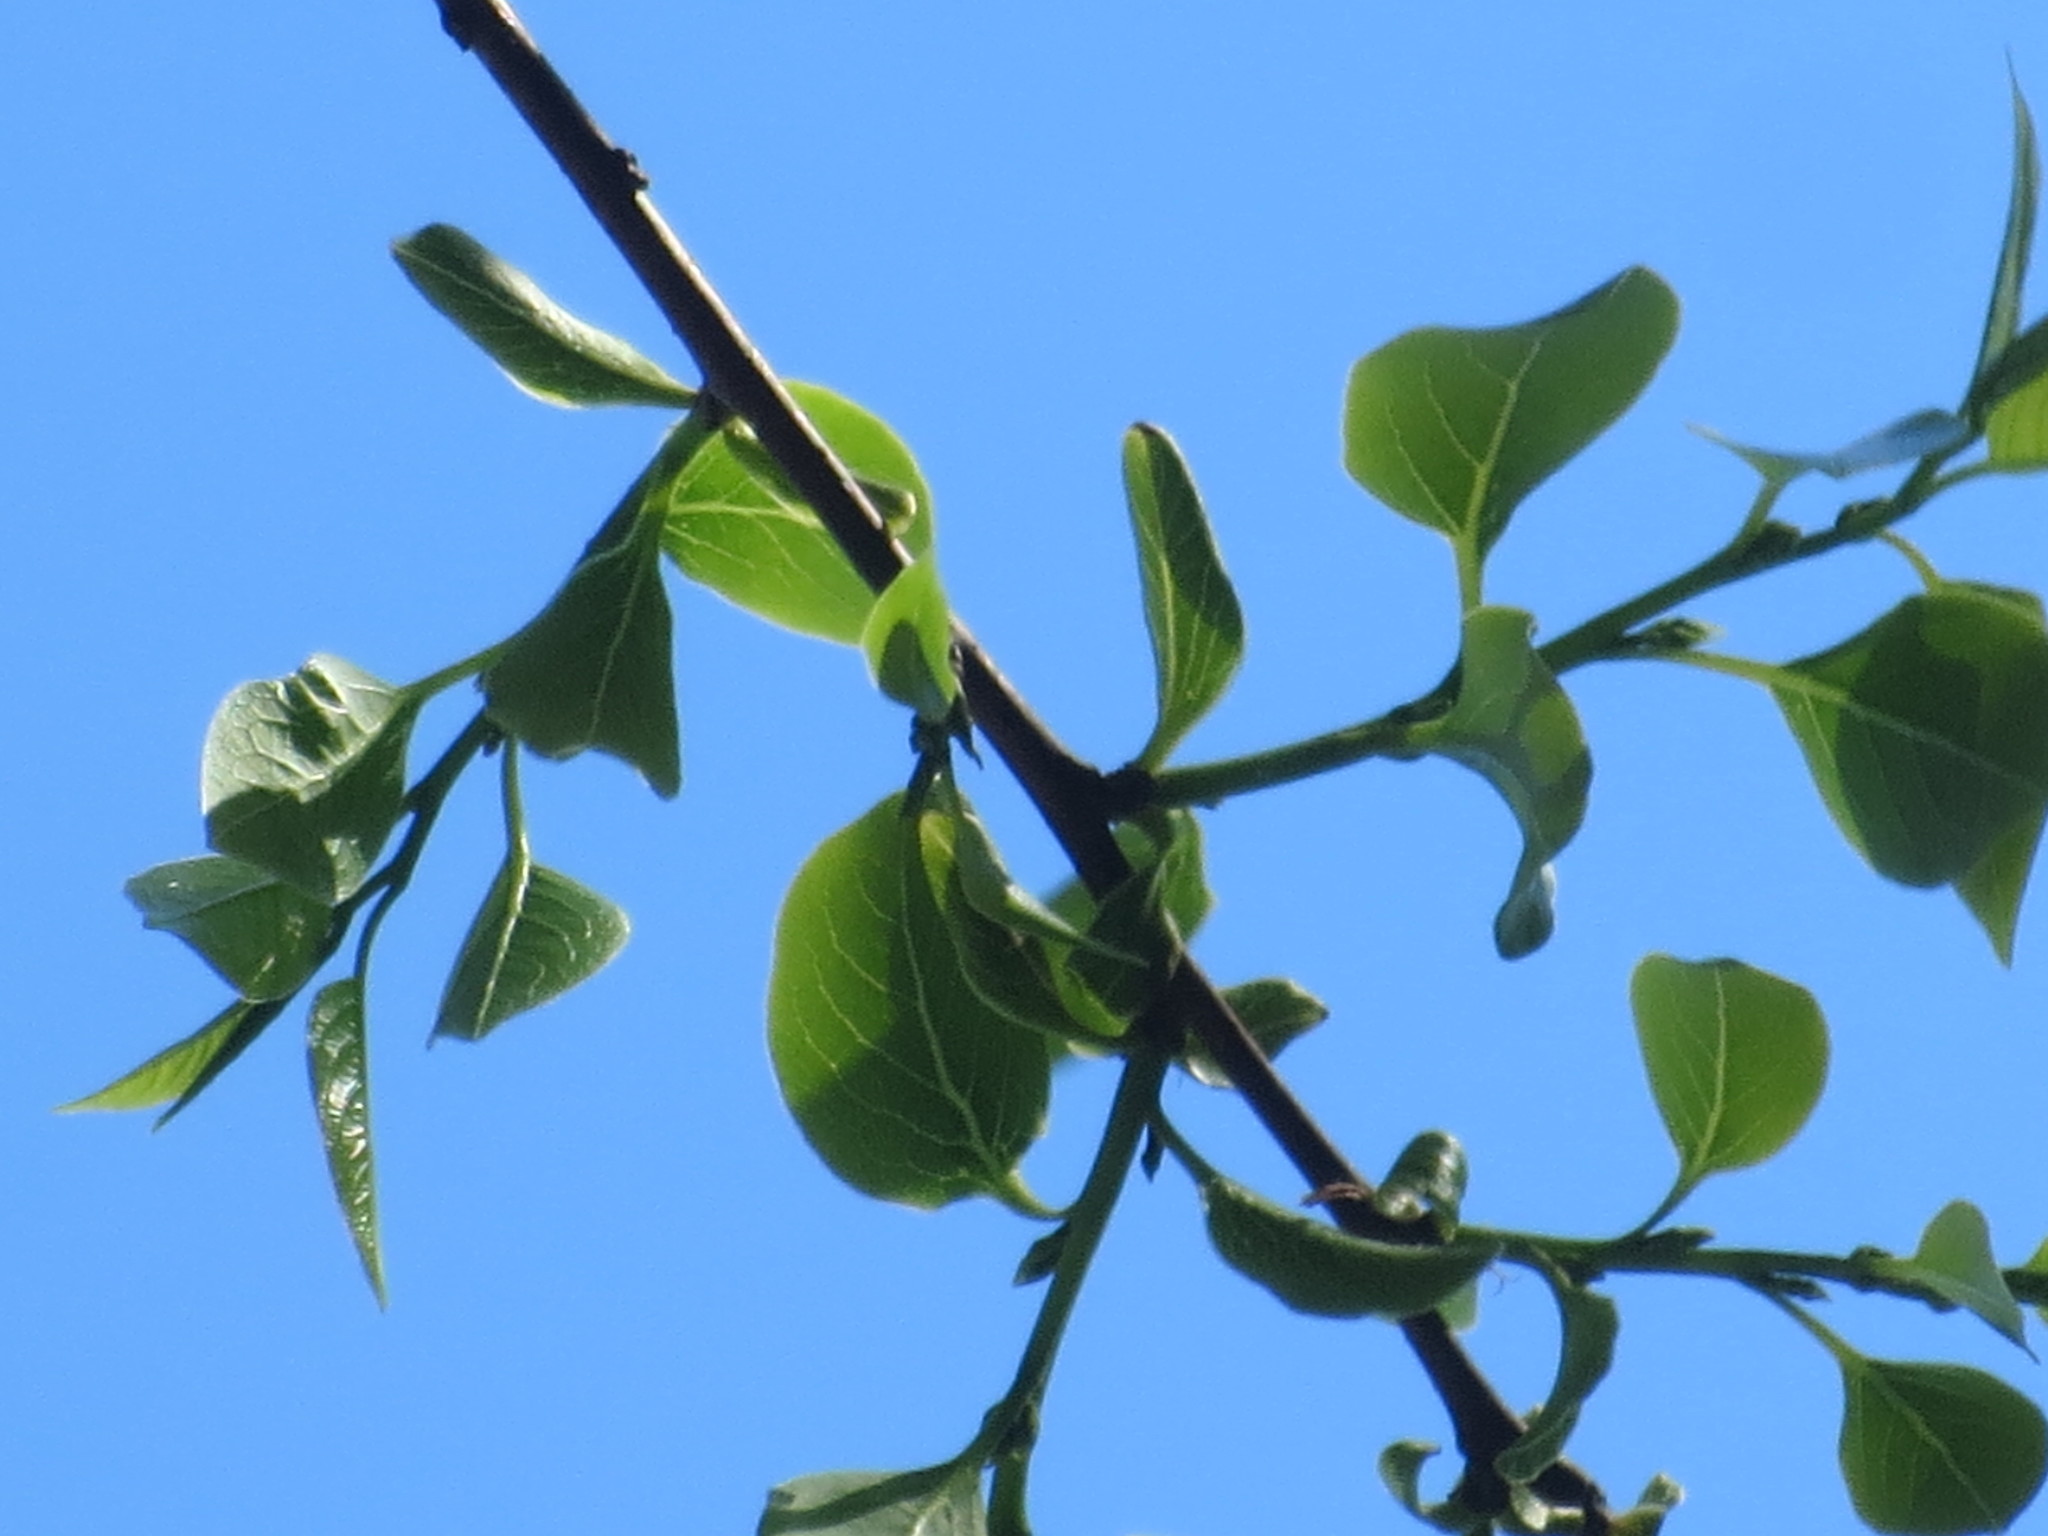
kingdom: Plantae
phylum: Tracheophyta
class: Magnoliopsida
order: Ericales
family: Ebenaceae
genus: Diospyros
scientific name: Diospyros virginiana
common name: Persimmon
